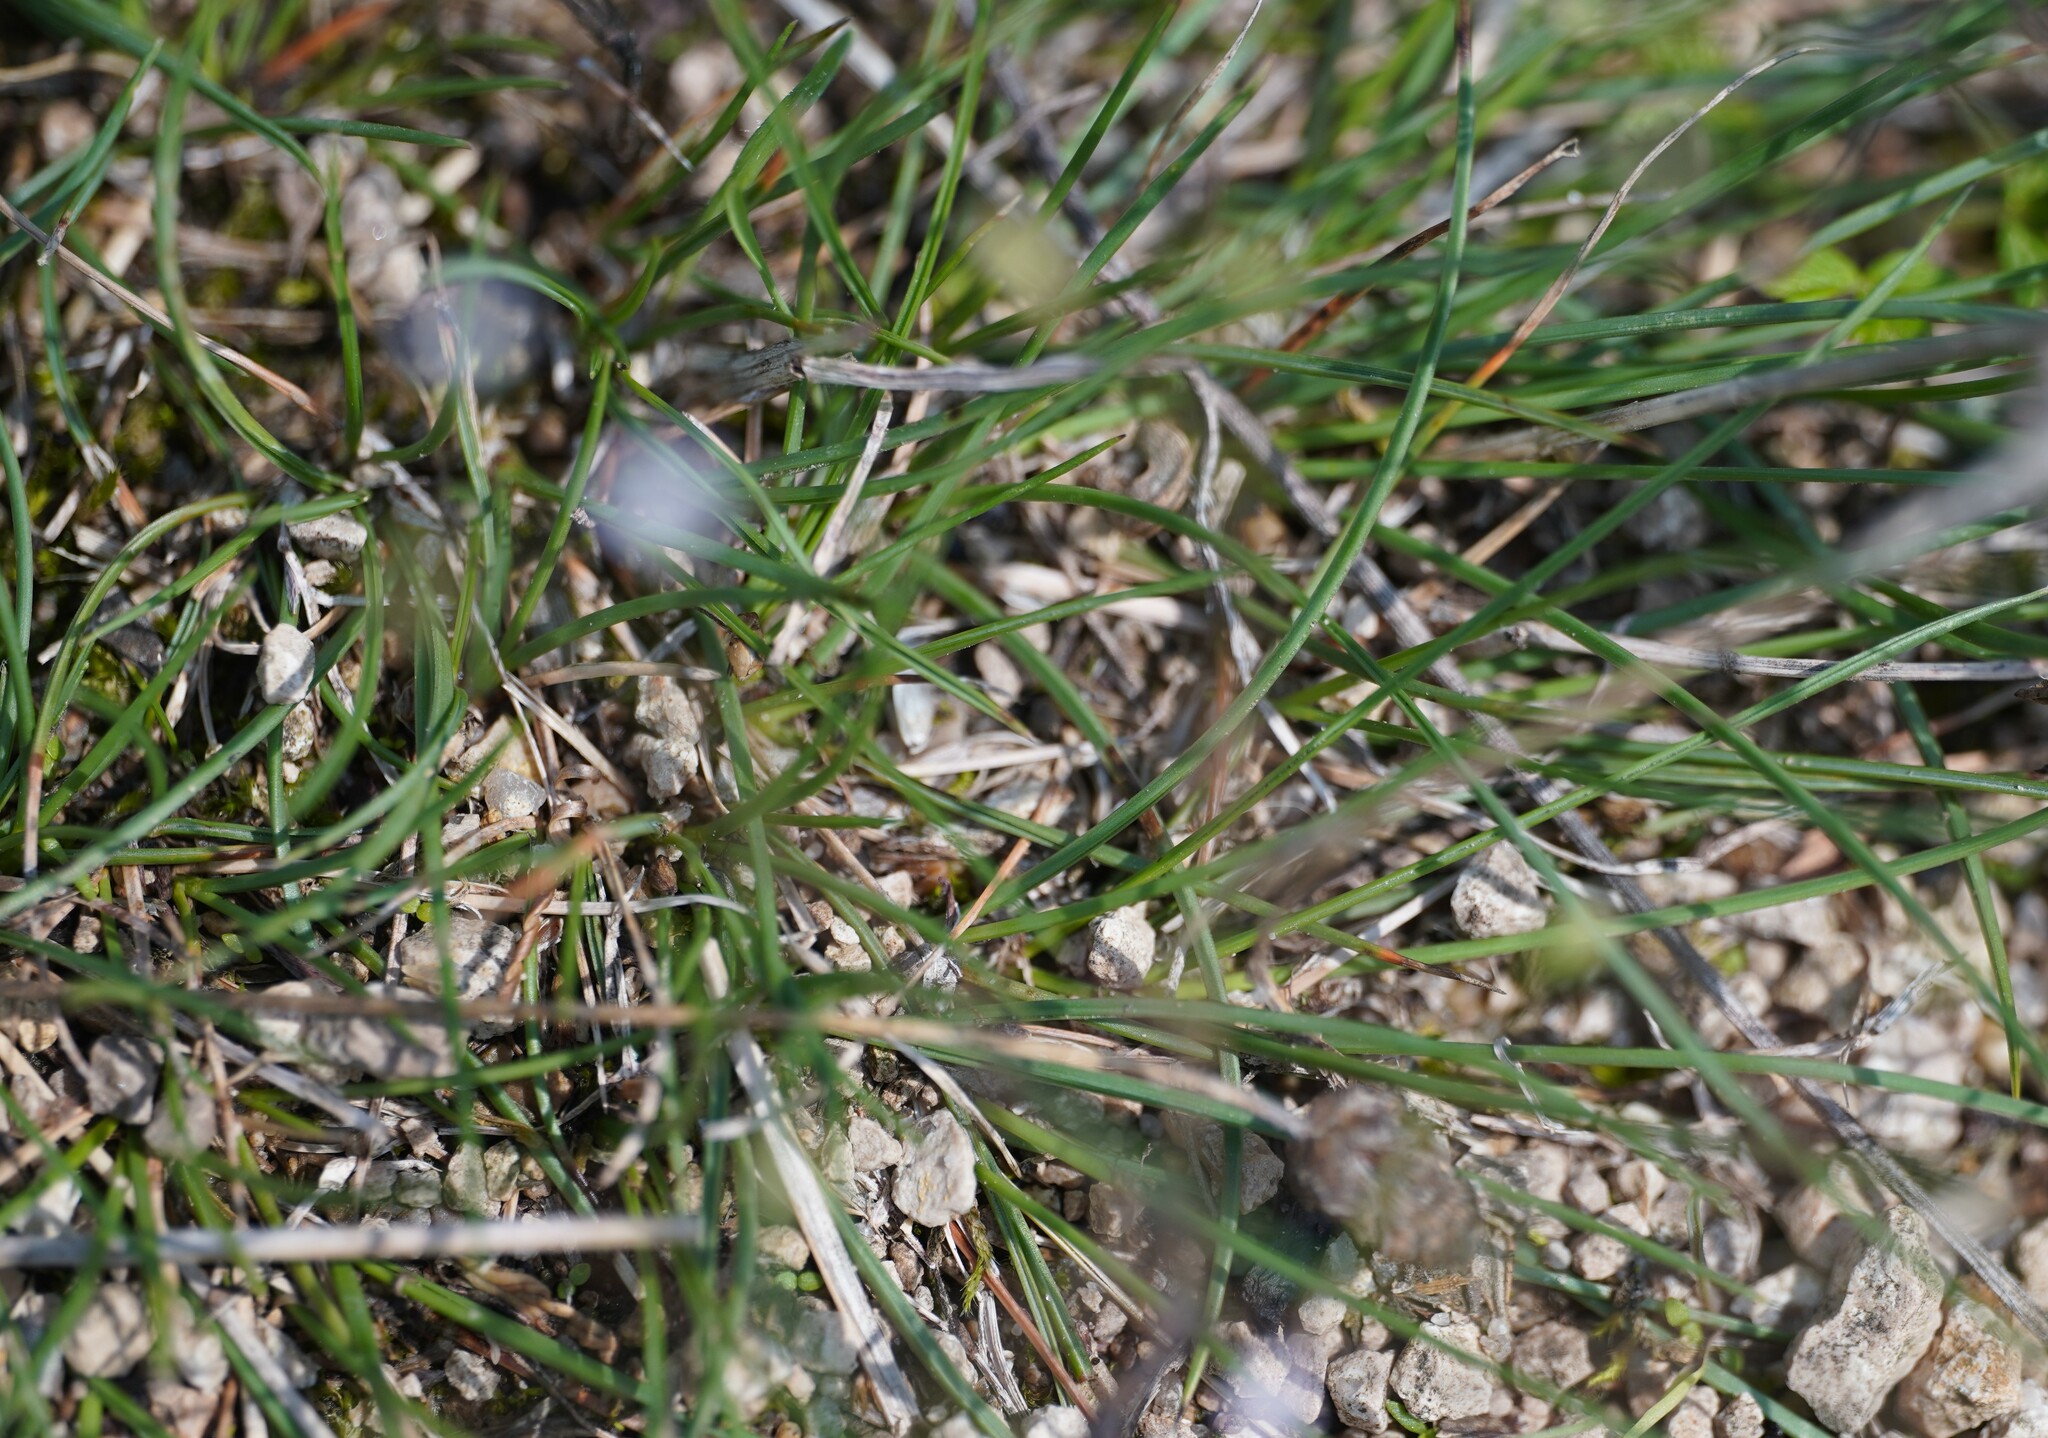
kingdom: Plantae
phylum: Tracheophyta
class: Magnoliopsida
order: Caryophyllales
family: Caryophyllaceae
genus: Psammophiliella
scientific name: Psammophiliella muralis
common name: Cushion baby's-breath
